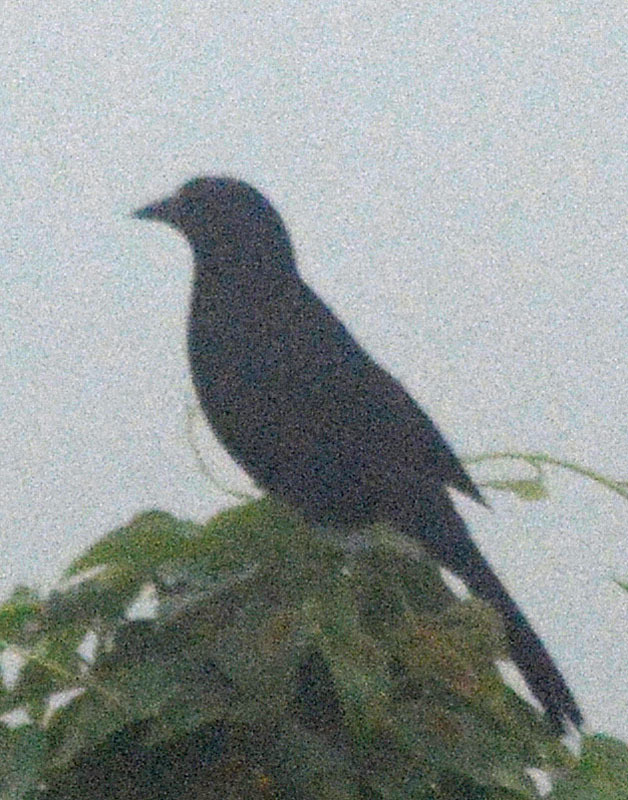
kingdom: Animalia
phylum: Chordata
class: Aves
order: Passeriformes
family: Icteridae
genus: Dives
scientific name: Dives dives
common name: Melodious blackbird
